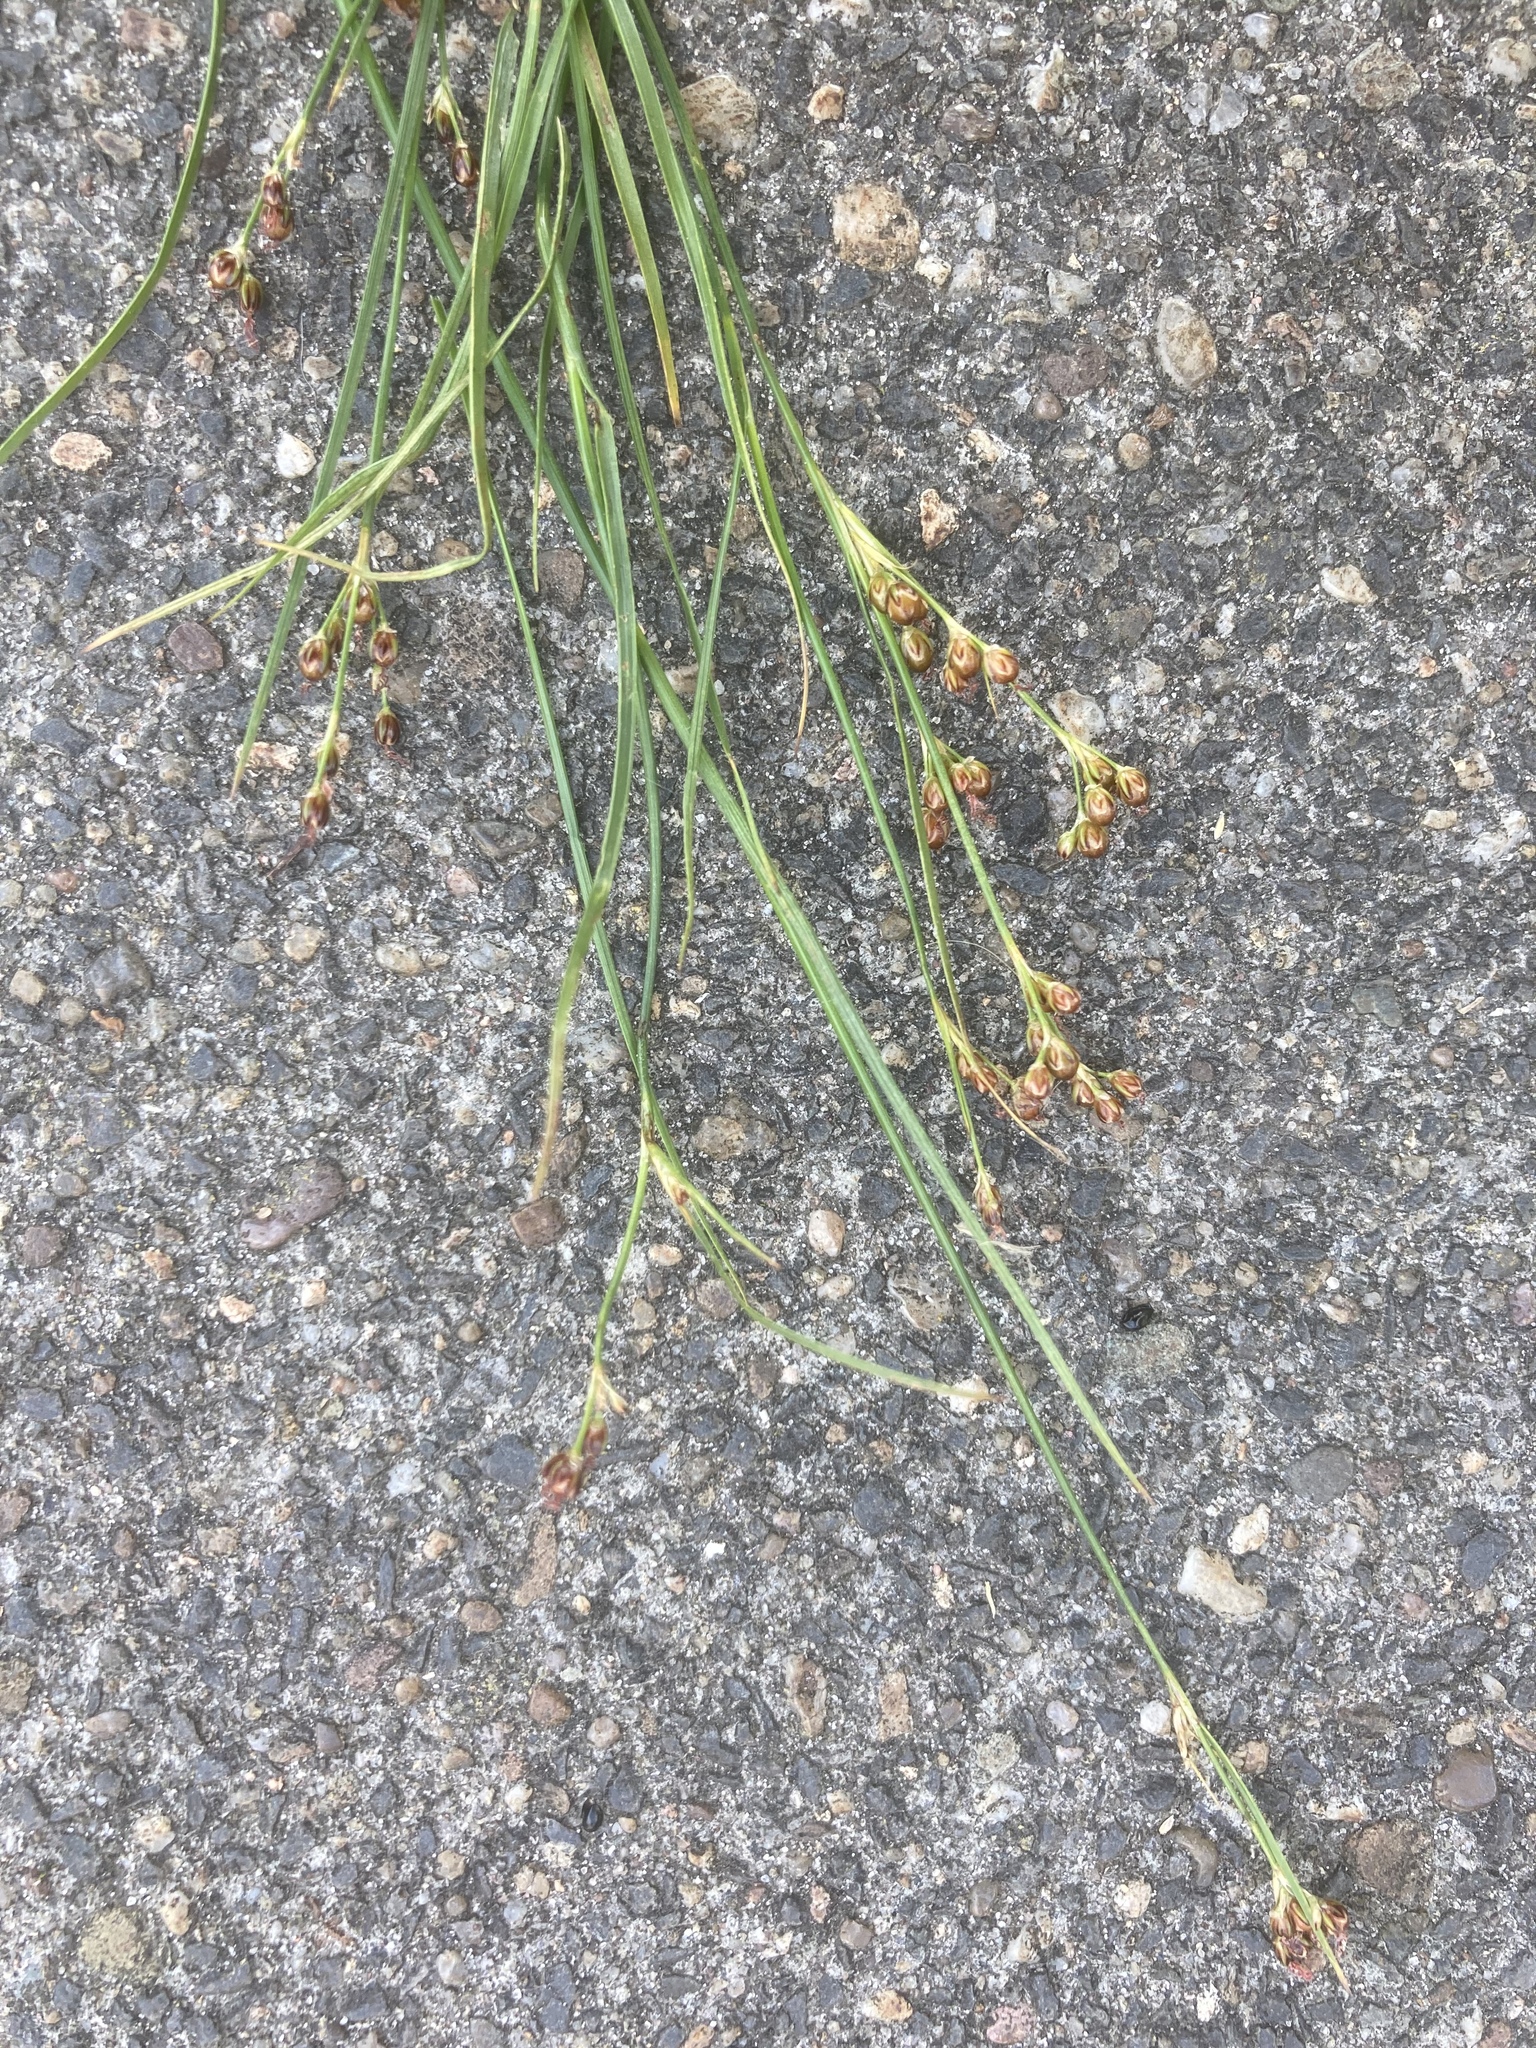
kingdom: Plantae
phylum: Tracheophyta
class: Liliopsida
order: Poales
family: Juncaceae
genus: Juncus
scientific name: Juncus compressus
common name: Round-fruited rush
